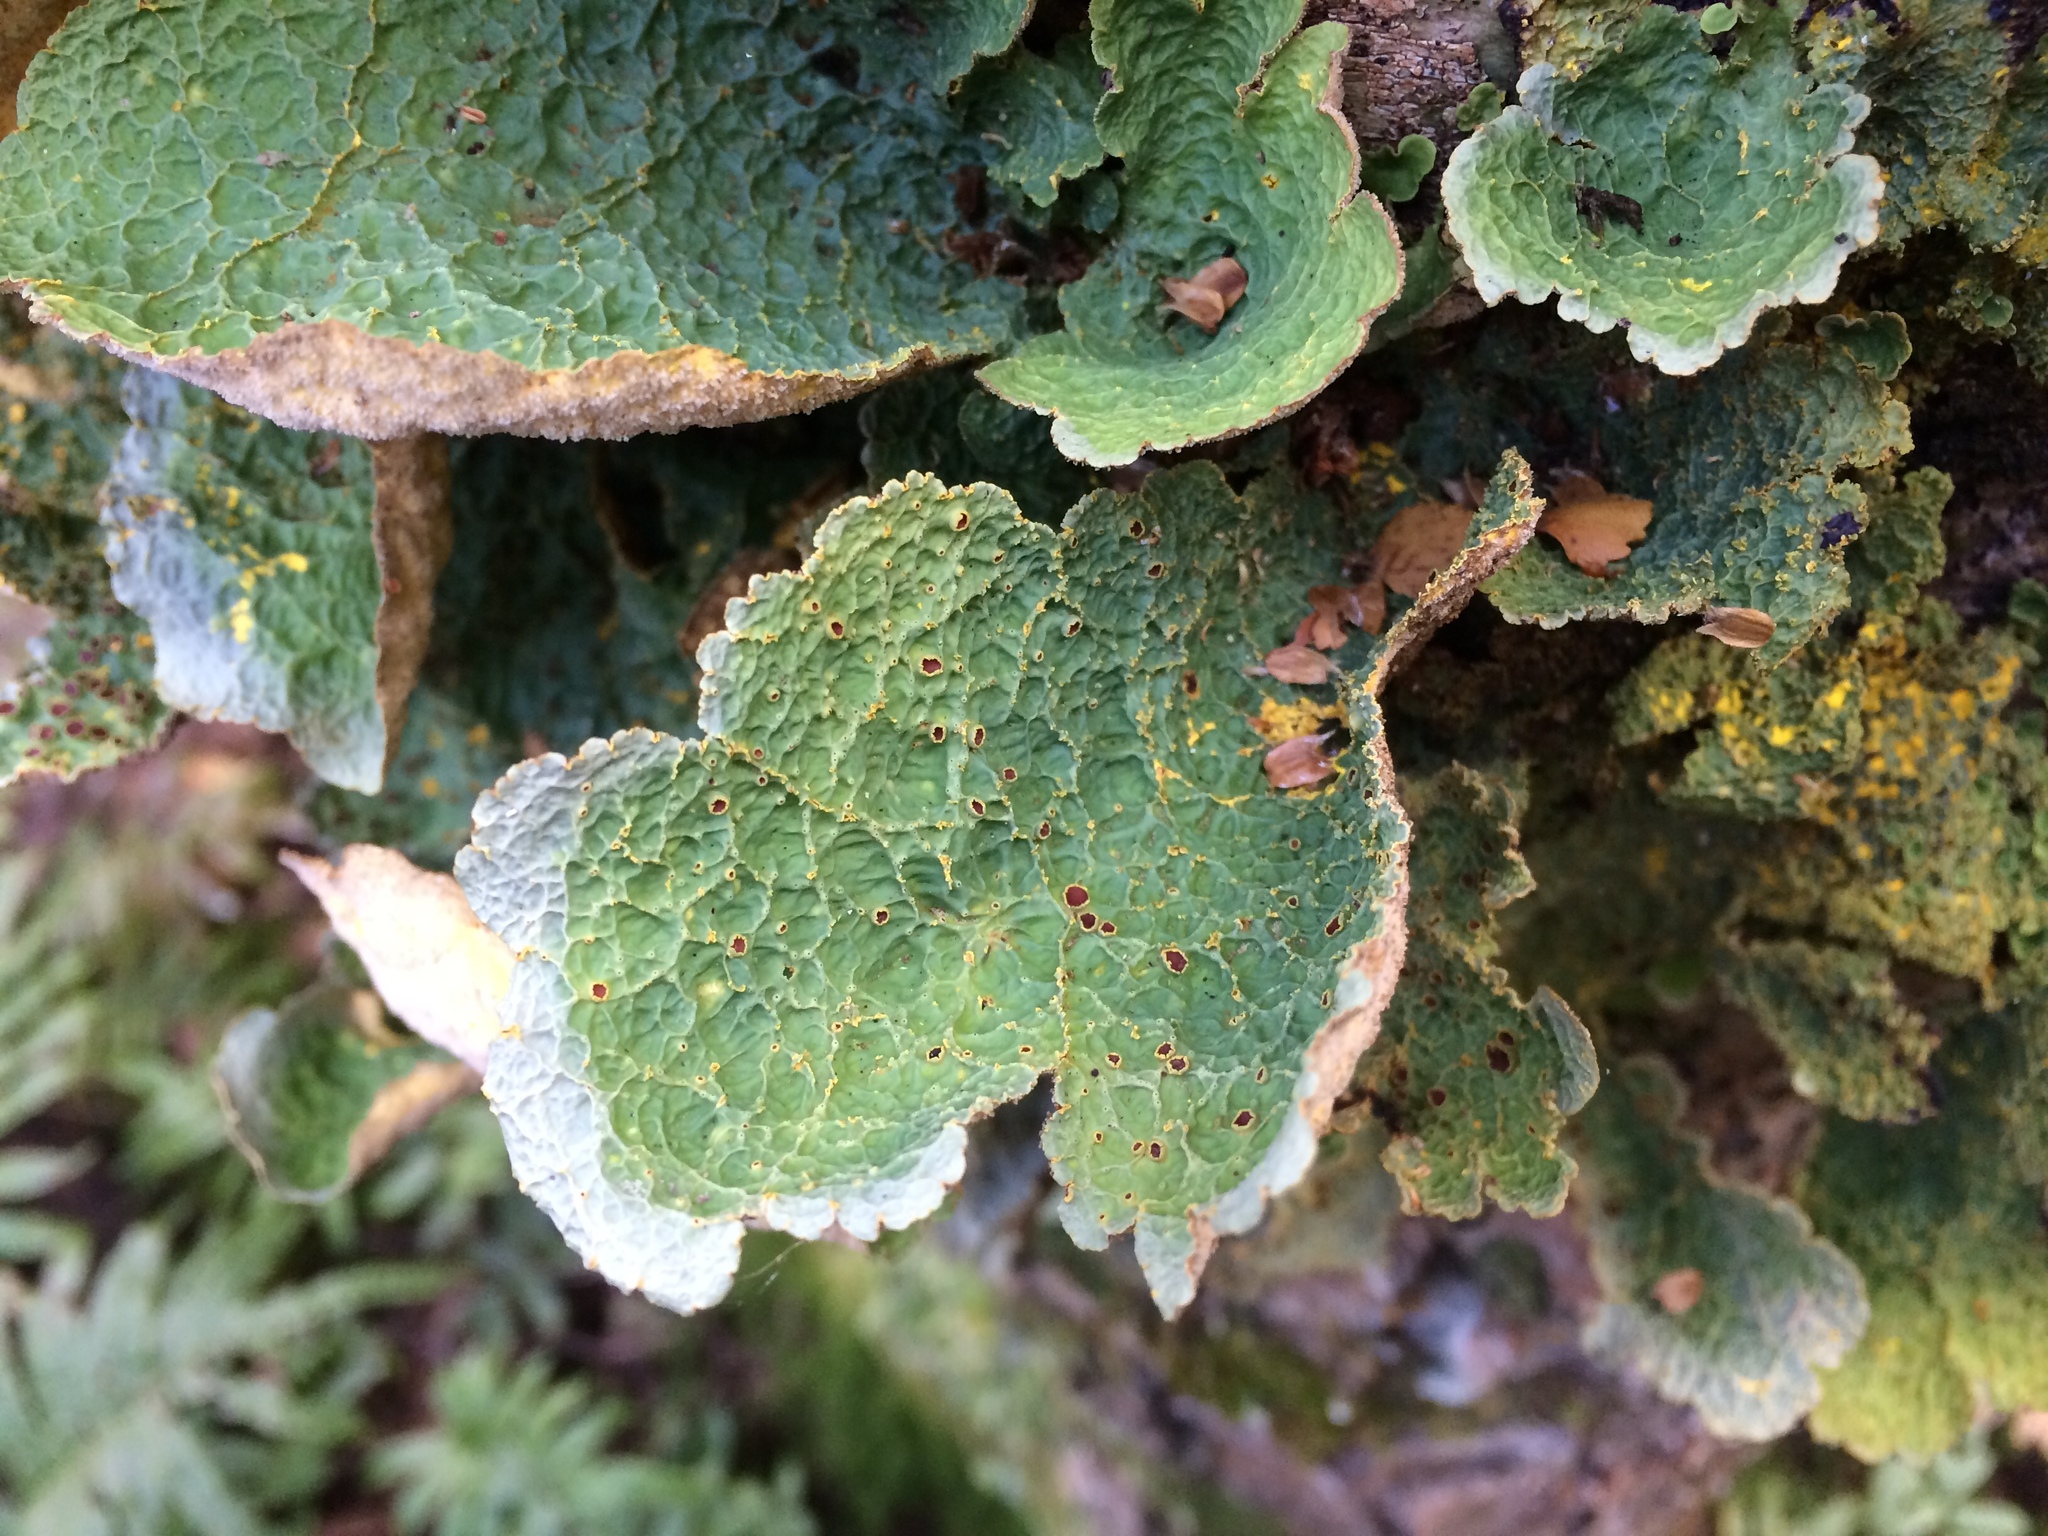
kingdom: Fungi
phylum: Ascomycota
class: Lecanoromycetes
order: Peltigerales
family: Lobariaceae
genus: Yarrumia
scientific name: Yarrumia coronata
